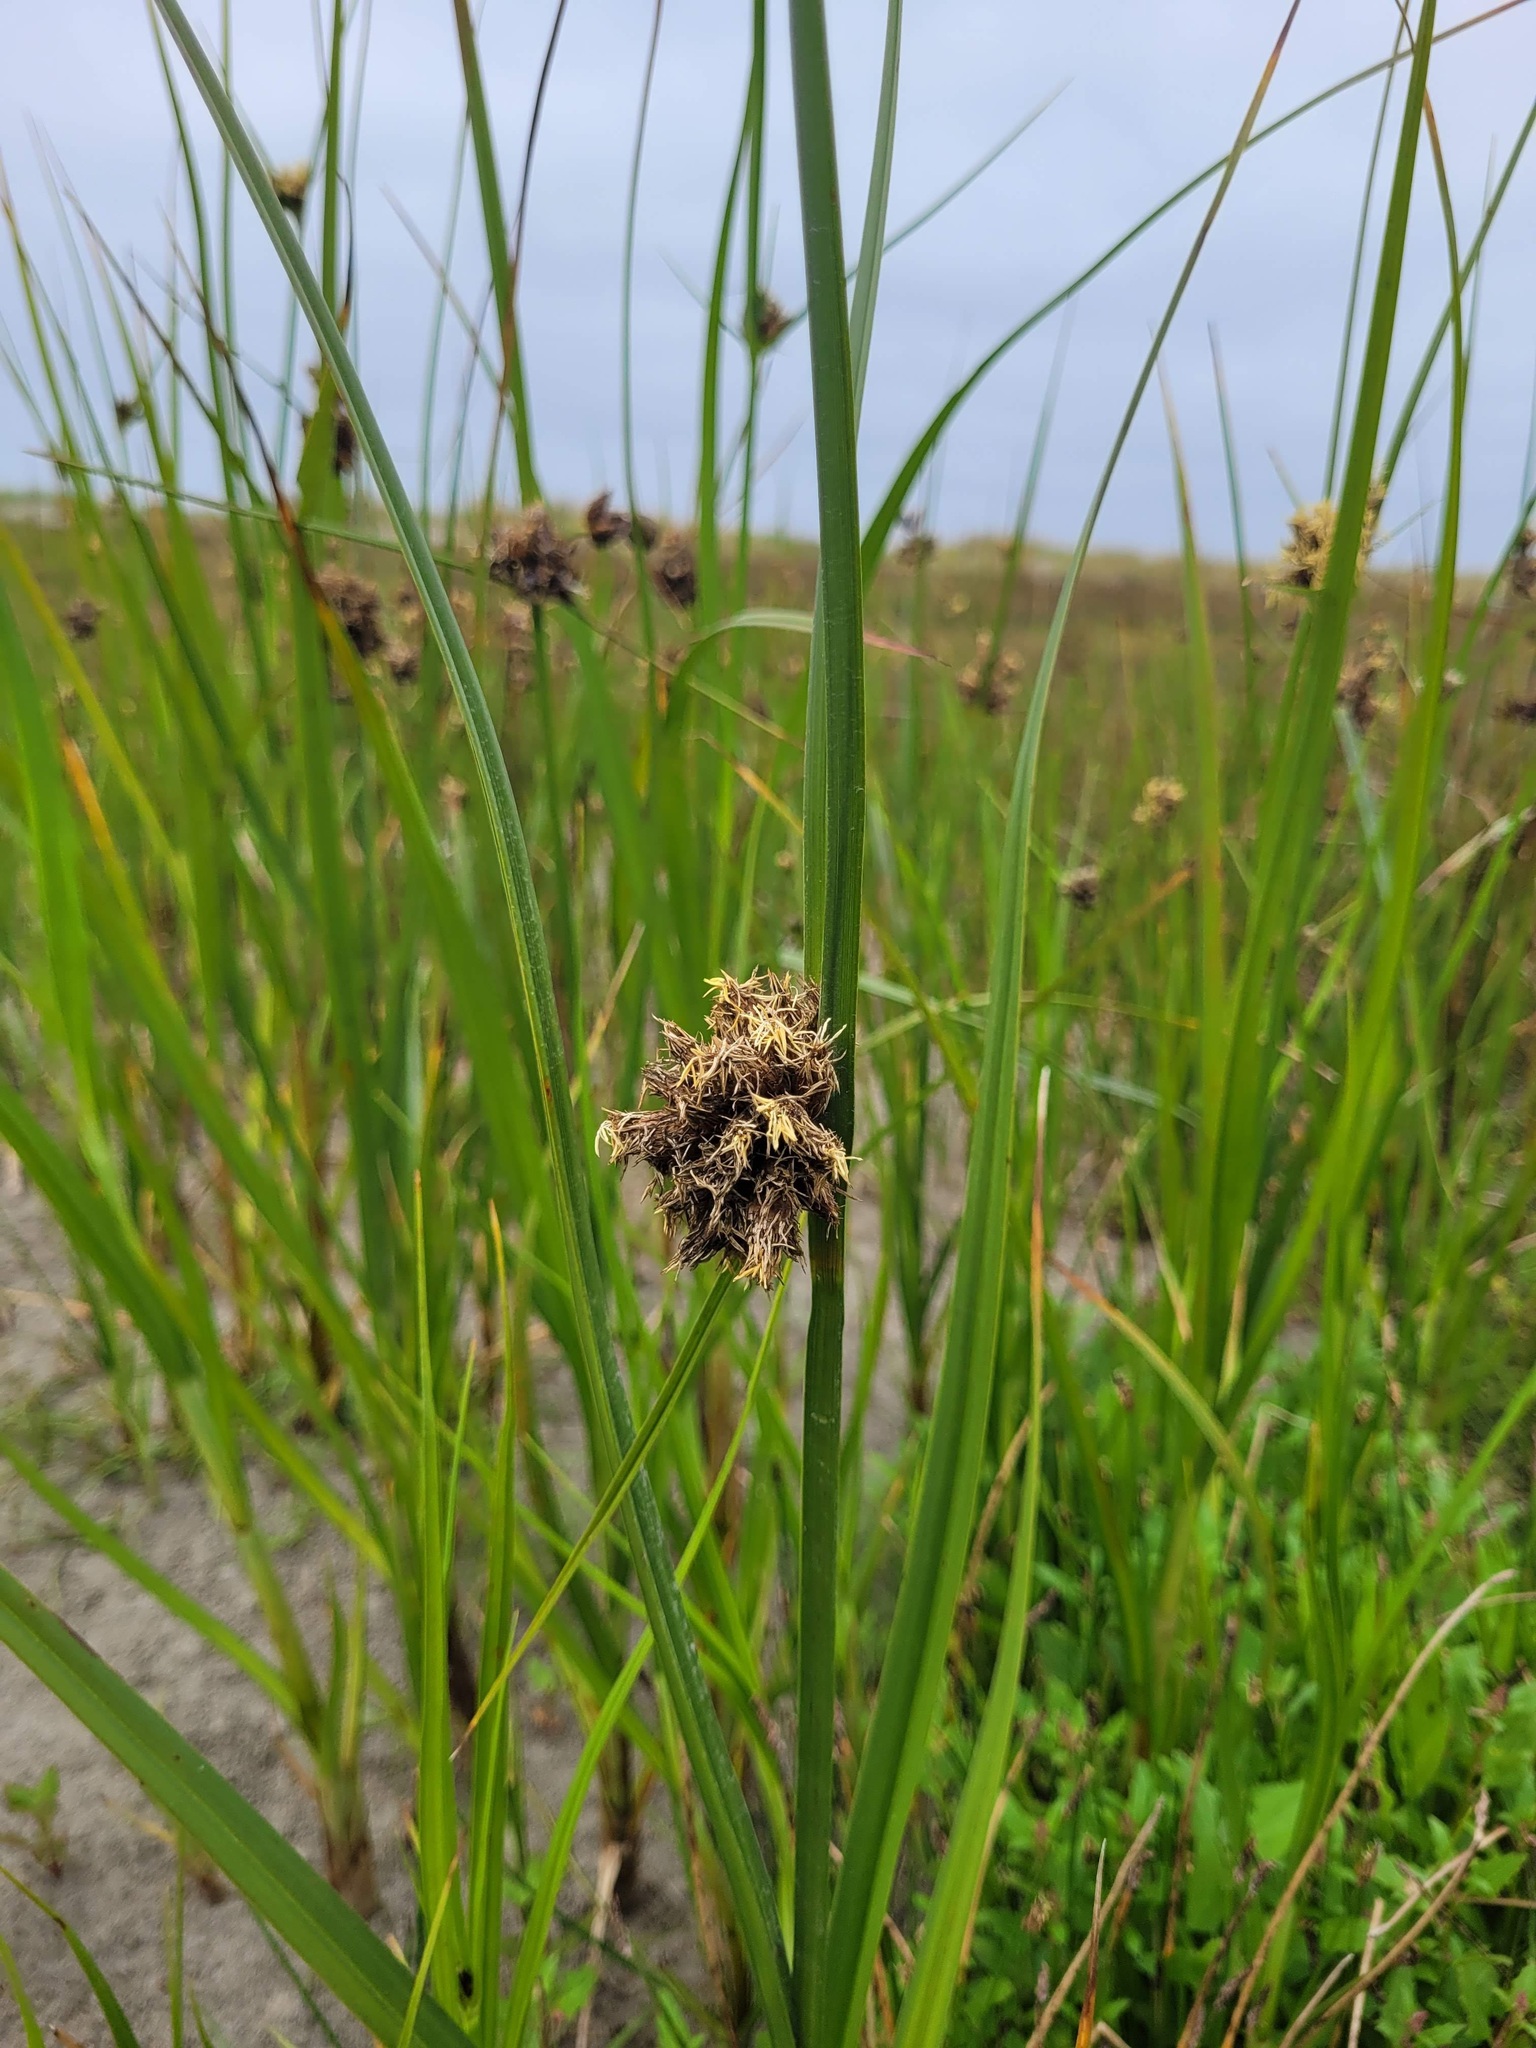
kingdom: Plantae
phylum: Tracheophyta
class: Liliopsida
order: Poales
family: Cyperaceae
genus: Bolboschoenus
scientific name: Bolboschoenus maritimus
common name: Sea club-rush
